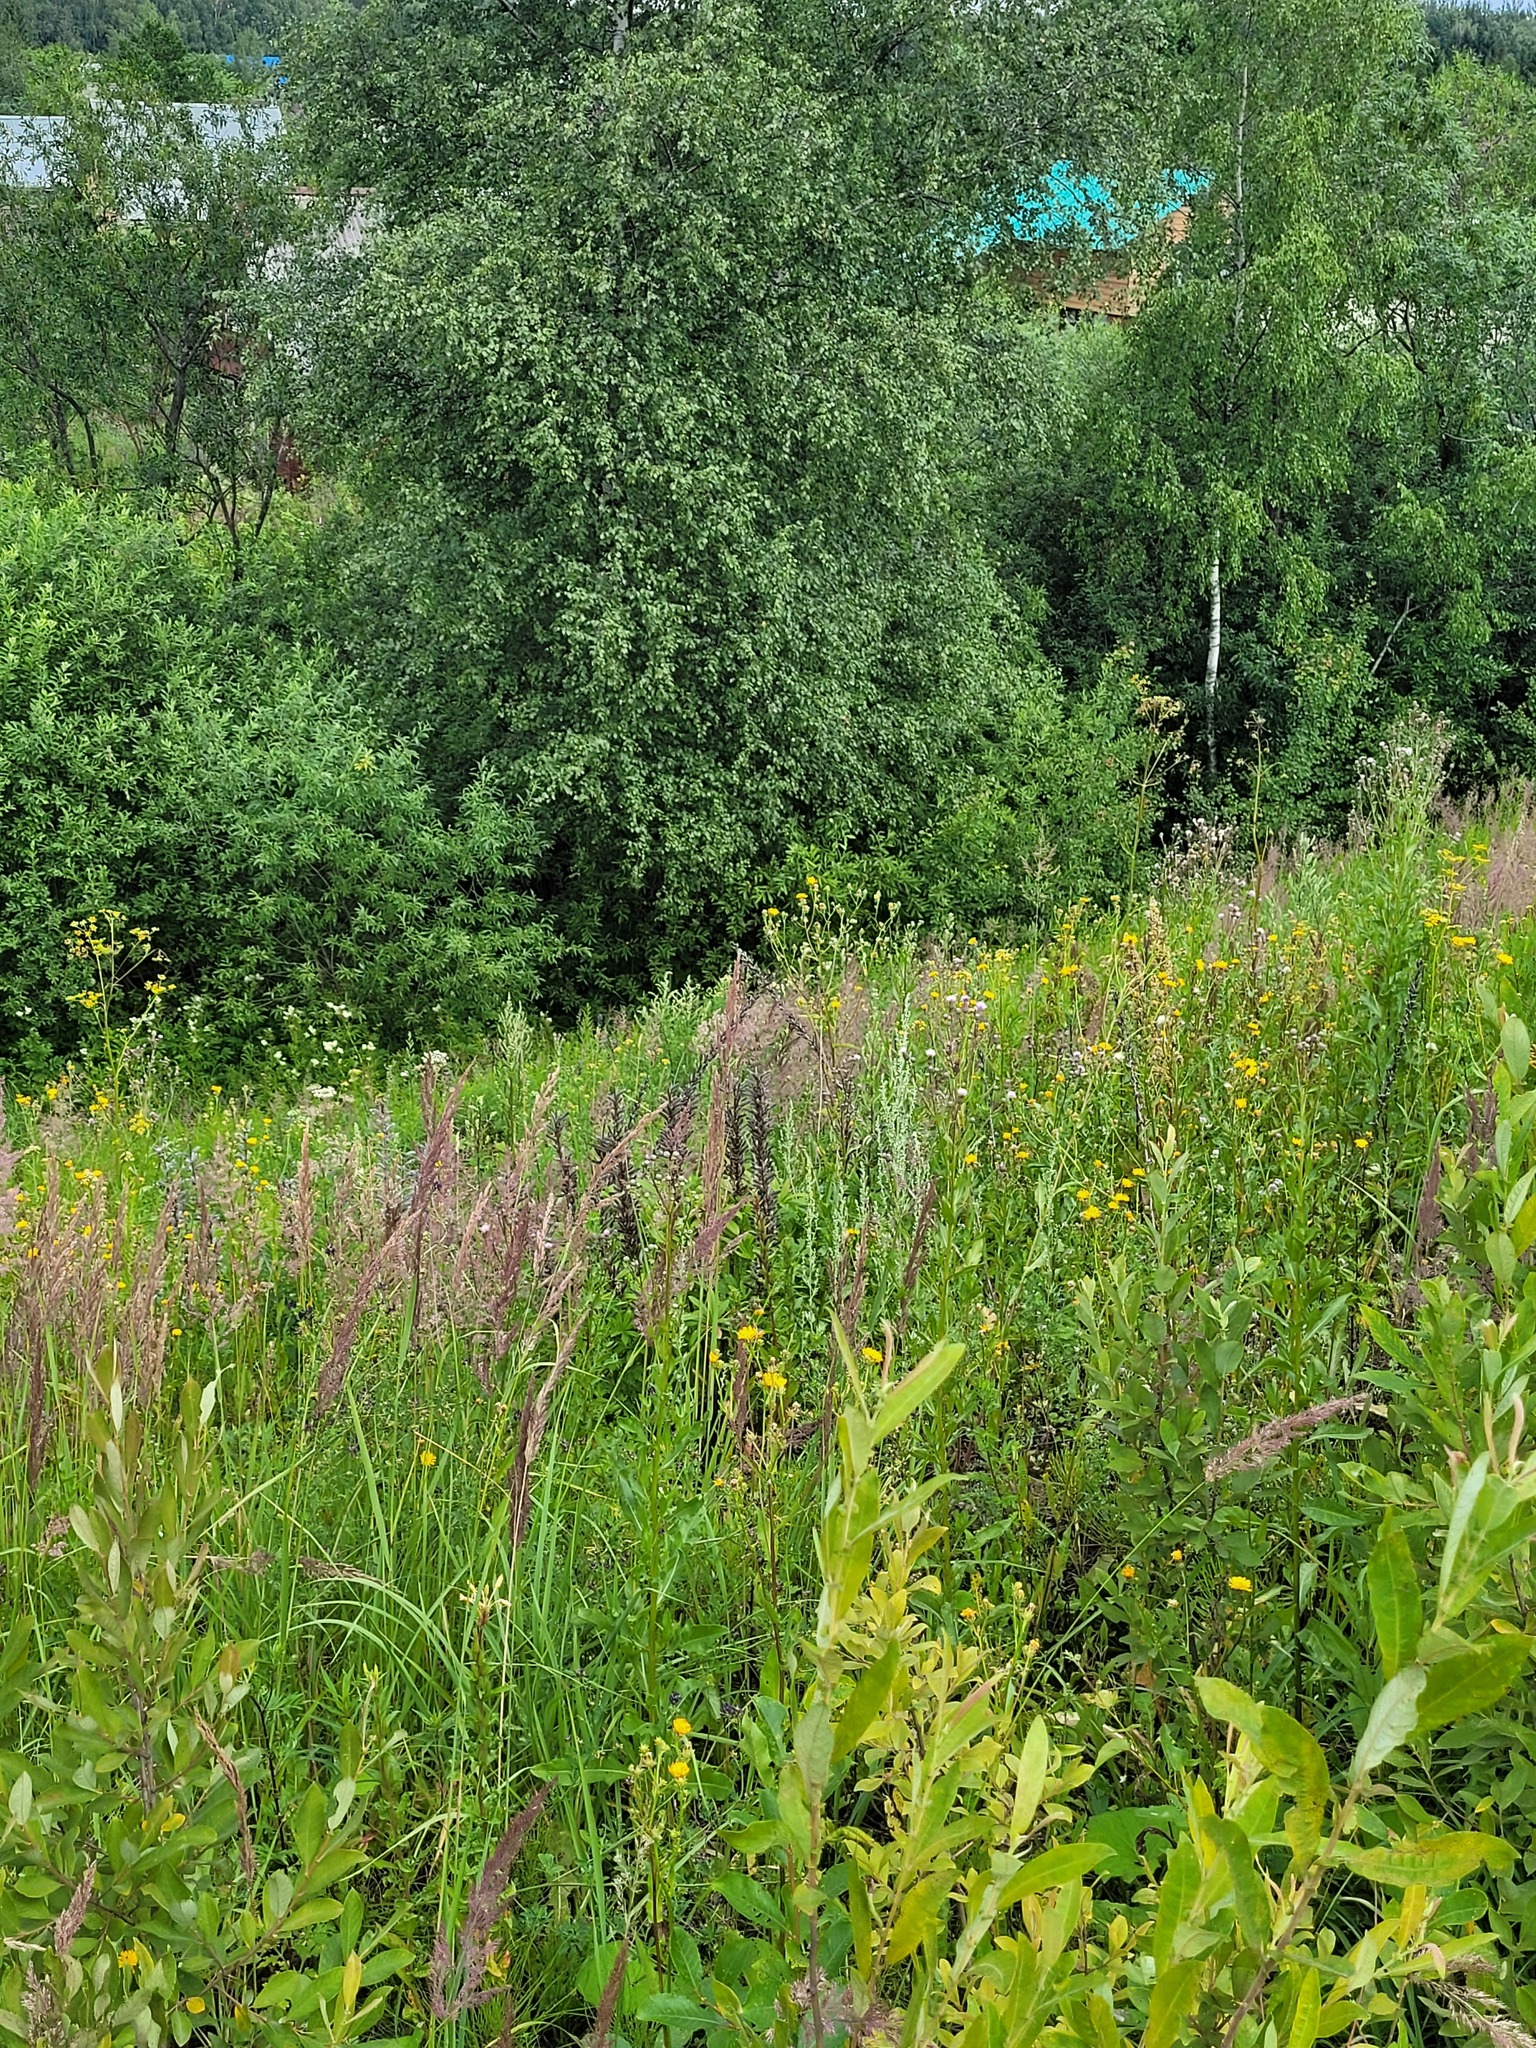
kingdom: Plantae
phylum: Tracheophyta
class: Magnoliopsida
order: Fabales
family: Fabaceae
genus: Lupinus
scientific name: Lupinus polyphyllus
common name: Garden lupin
